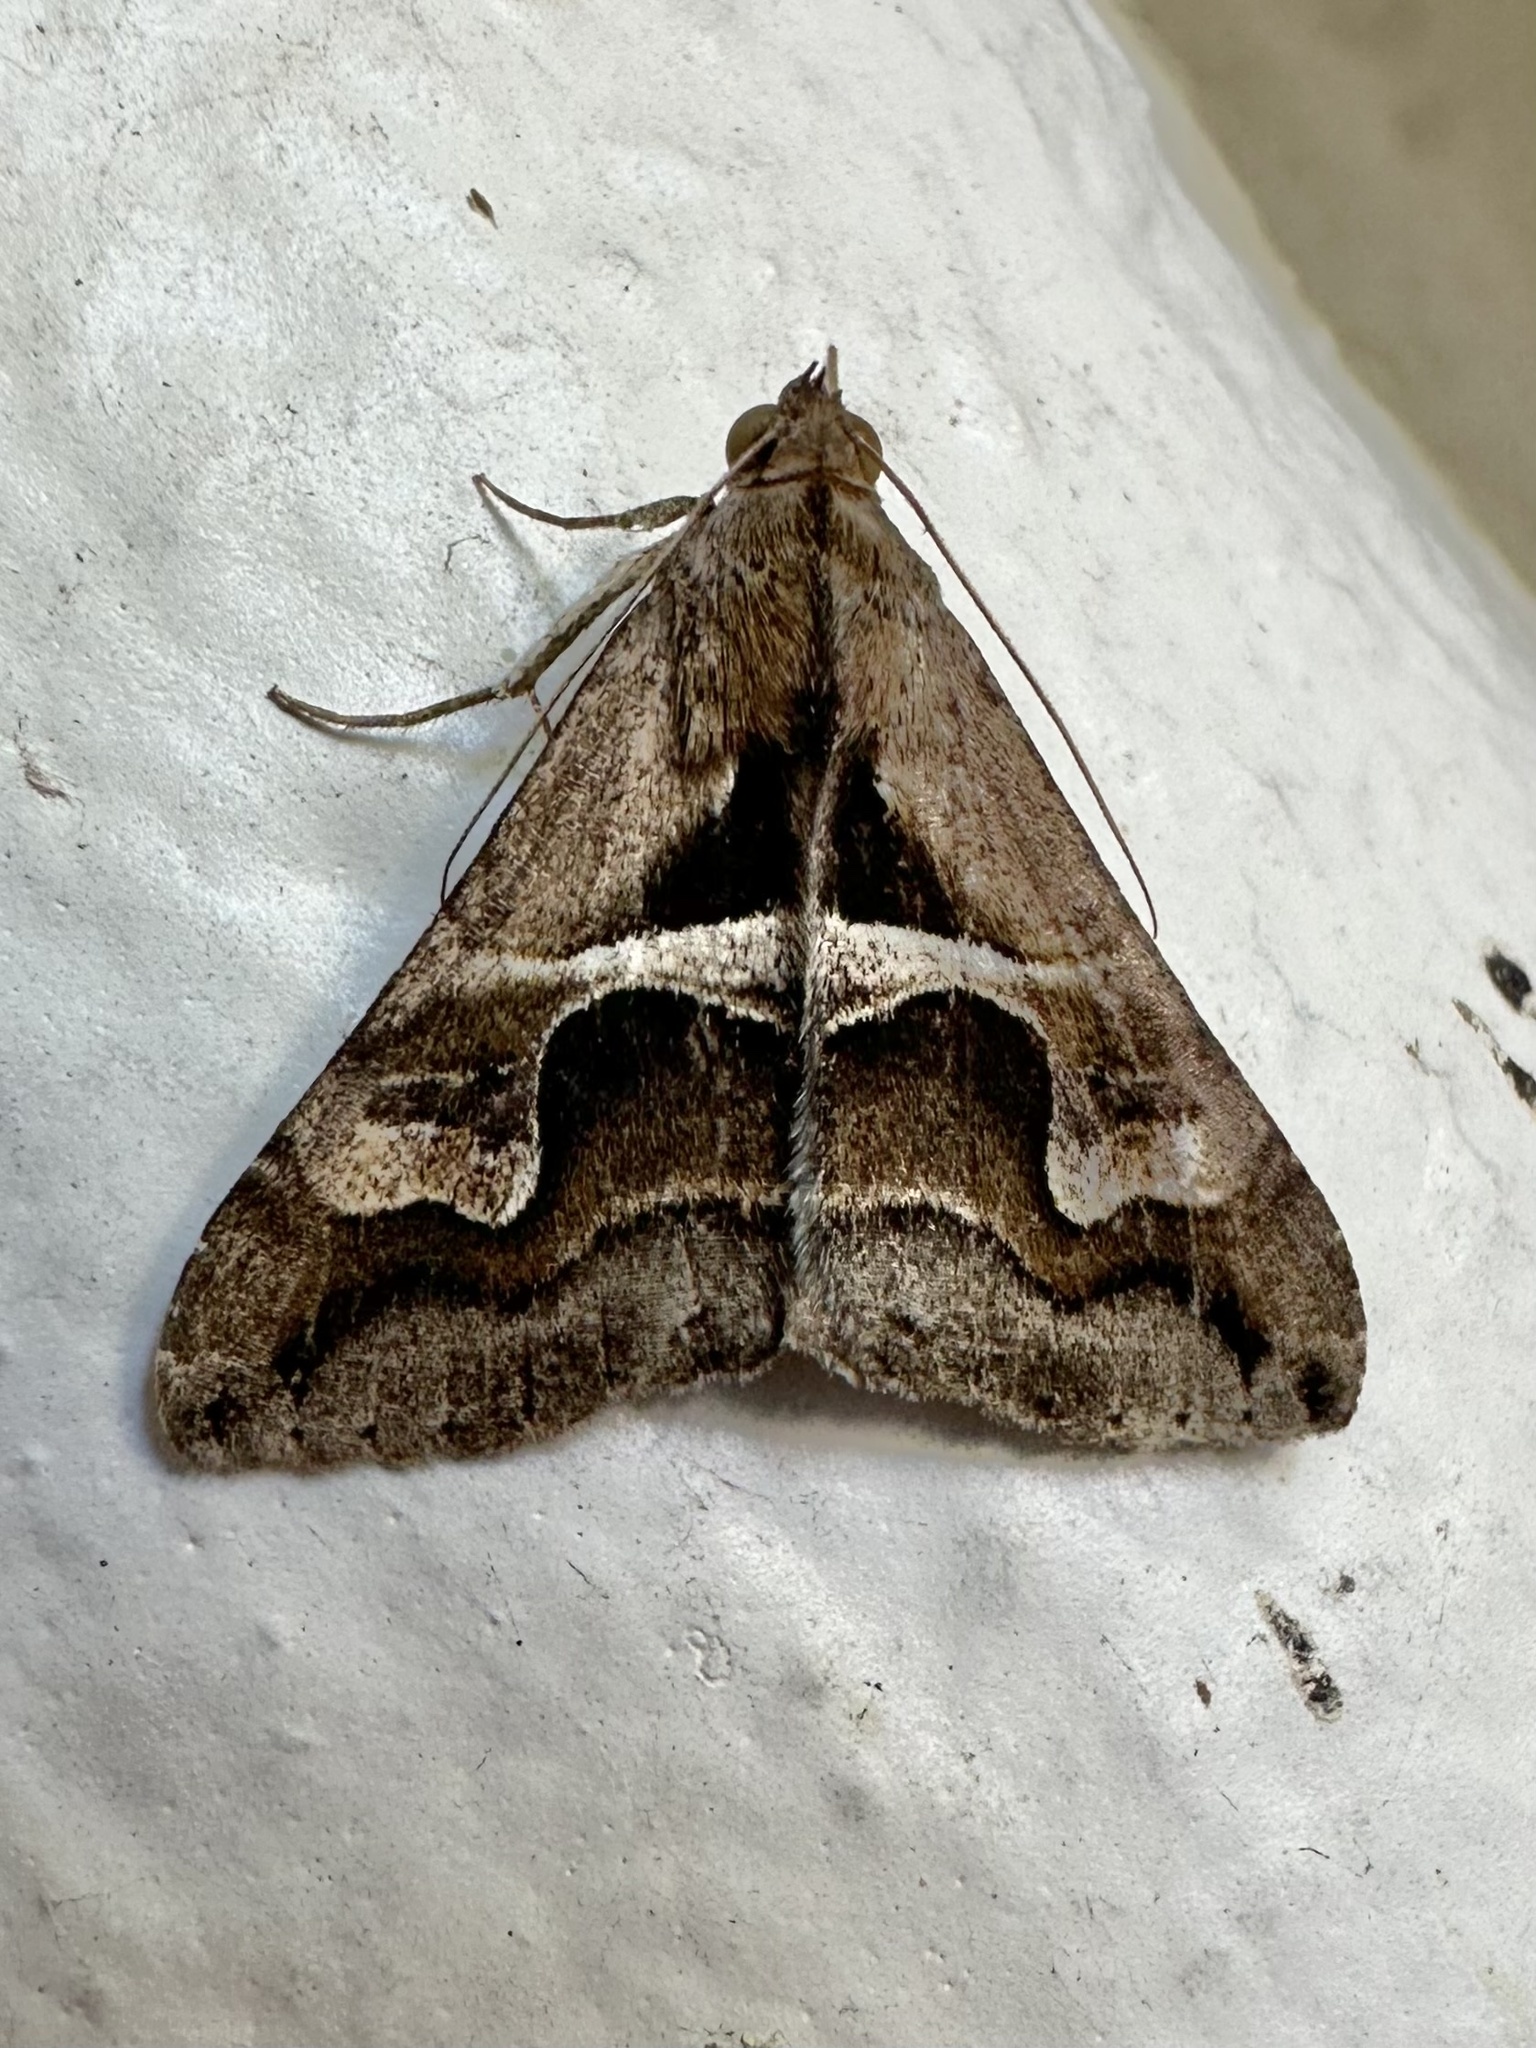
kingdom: Animalia
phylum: Arthropoda
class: Insecta
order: Lepidoptera
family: Erebidae
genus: Melipotis
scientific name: Melipotis cellaris
